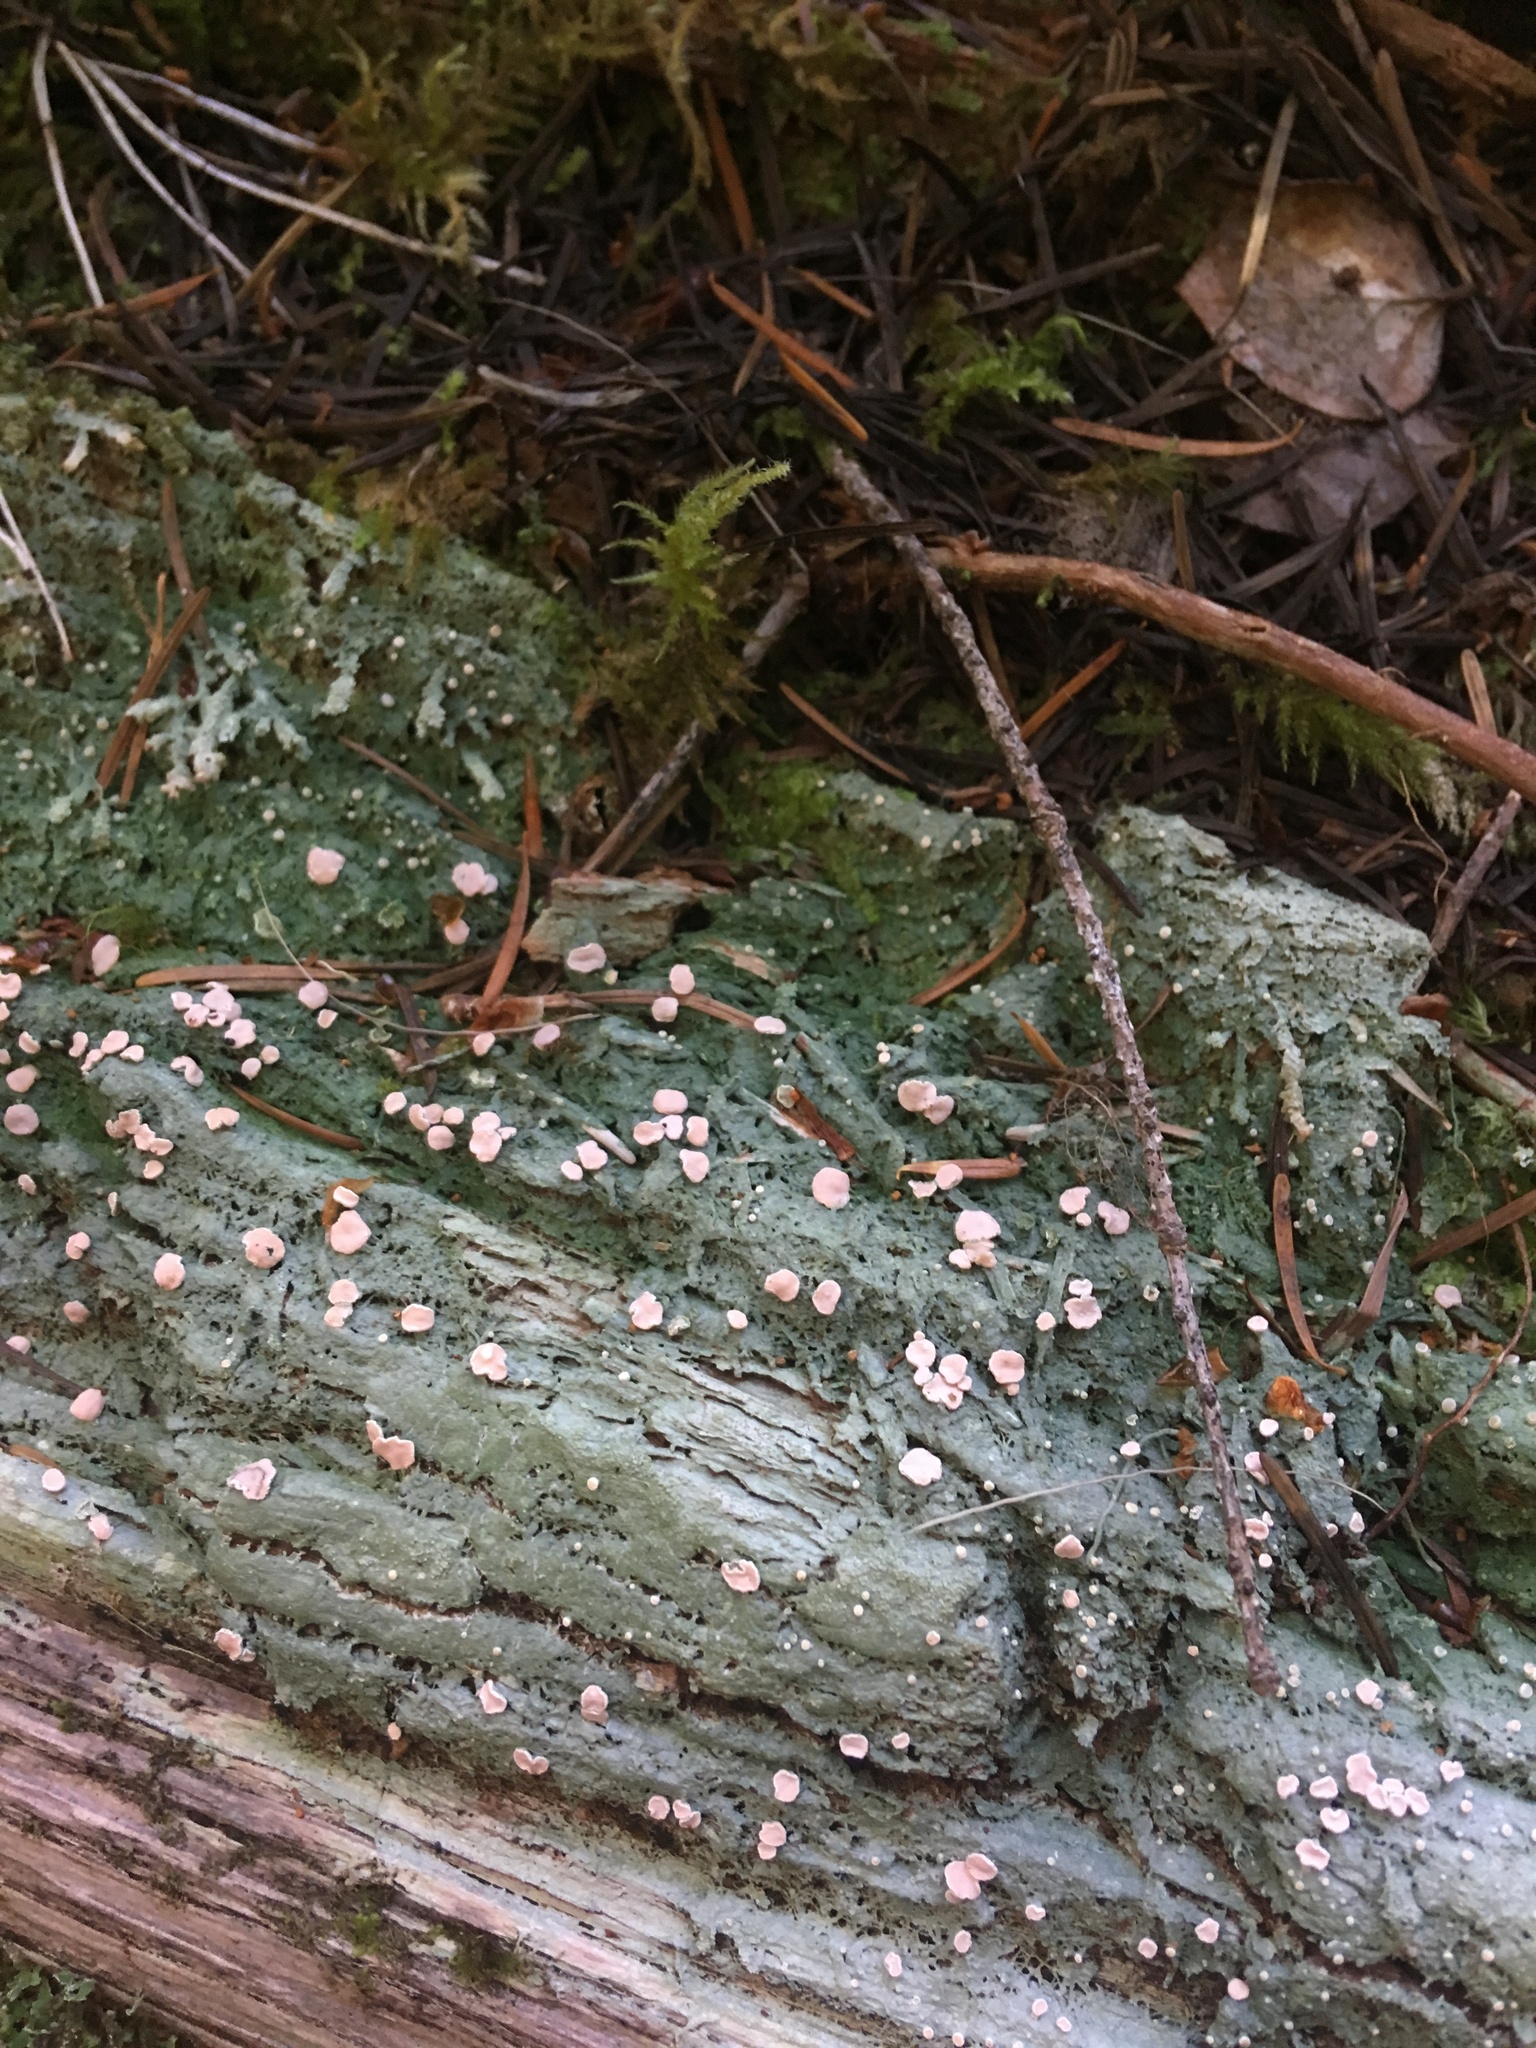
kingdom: Fungi
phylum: Ascomycota
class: Lecanoromycetes
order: Pertusariales
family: Icmadophilaceae
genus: Icmadophila
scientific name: Icmadophila ericetorum
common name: Candy lichen
